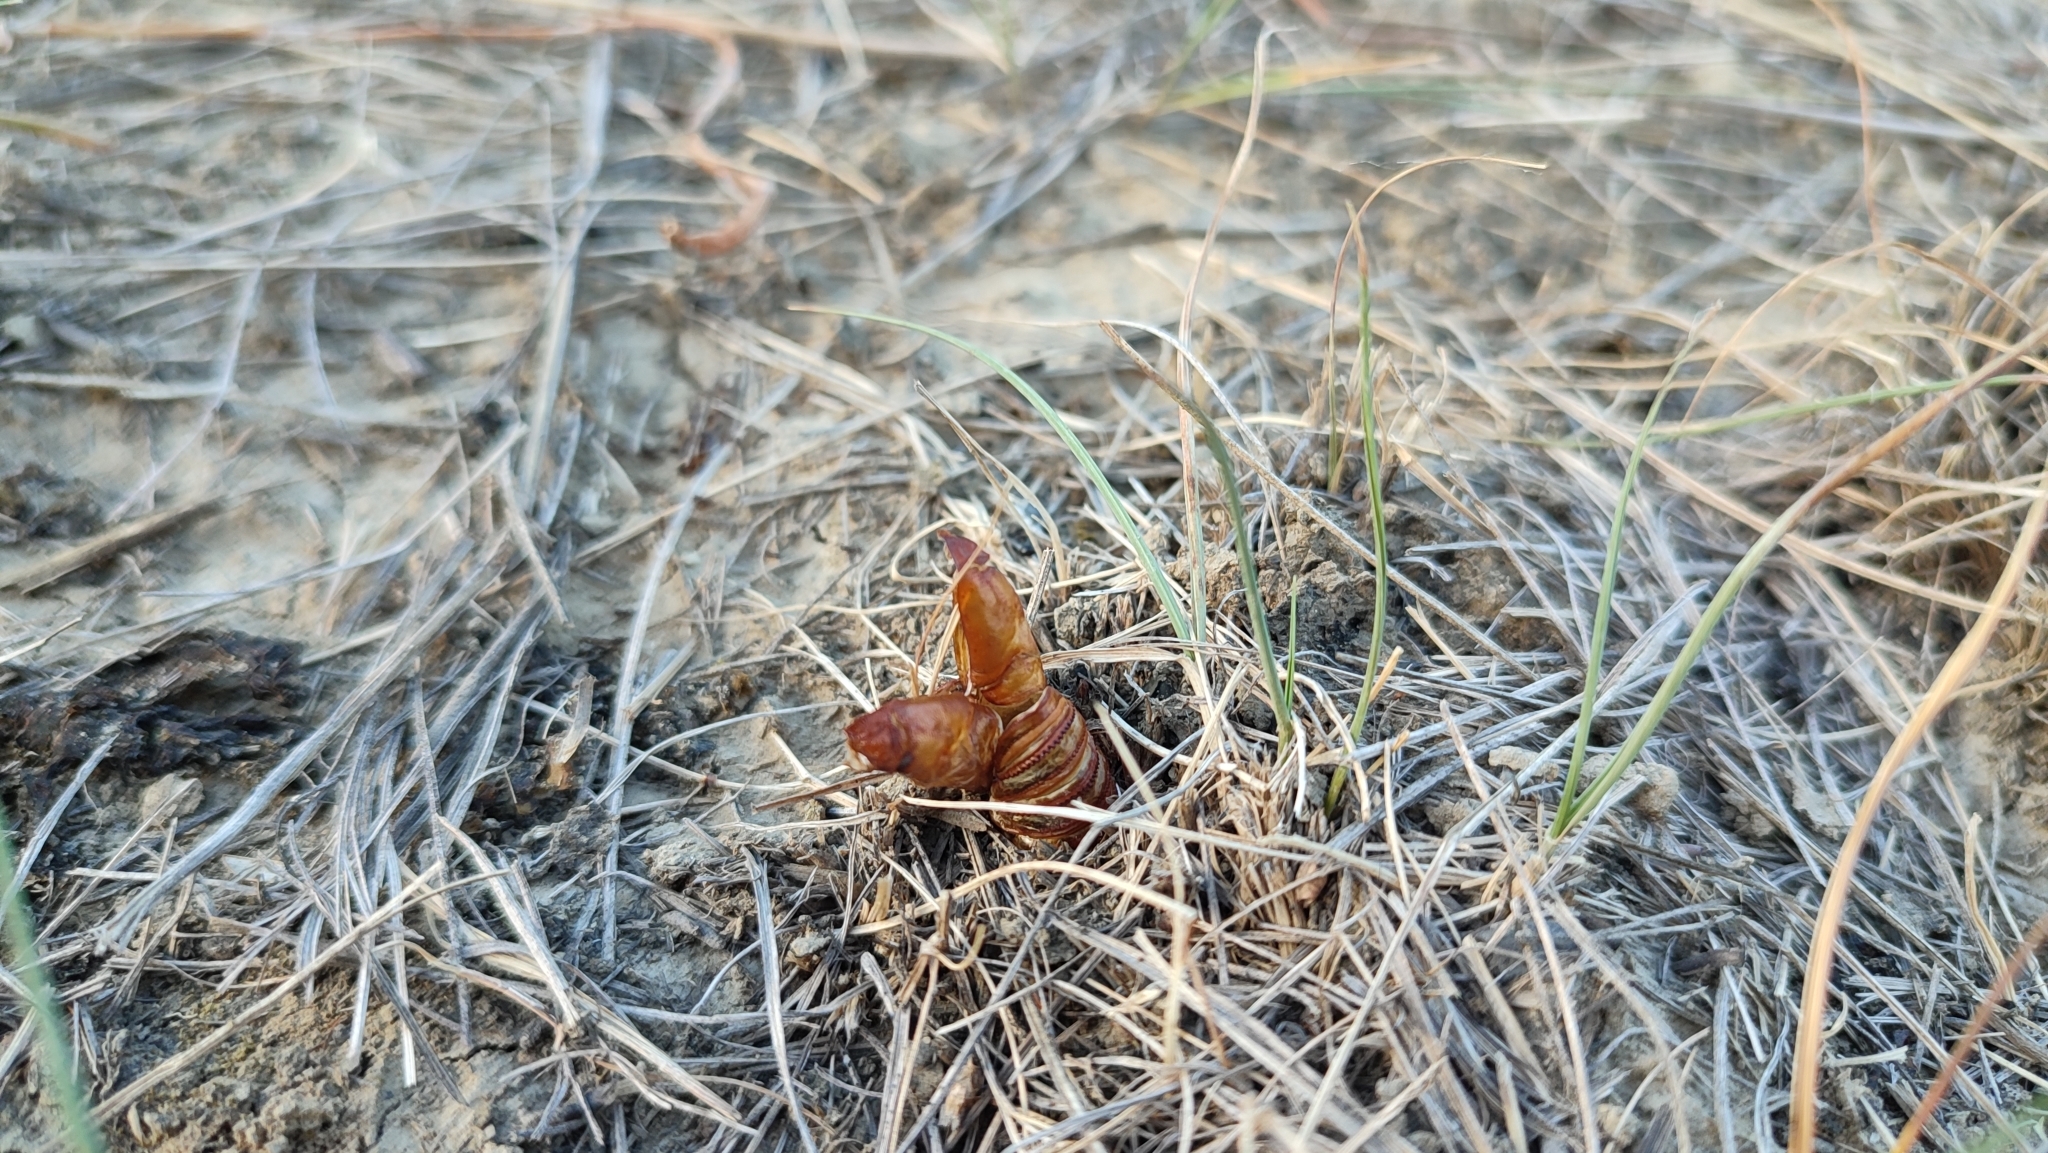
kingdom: Animalia
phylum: Arthropoda
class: Insecta
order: Lepidoptera
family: Cossidae
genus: Cossus
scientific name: Cossus cossus
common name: Goat moth
